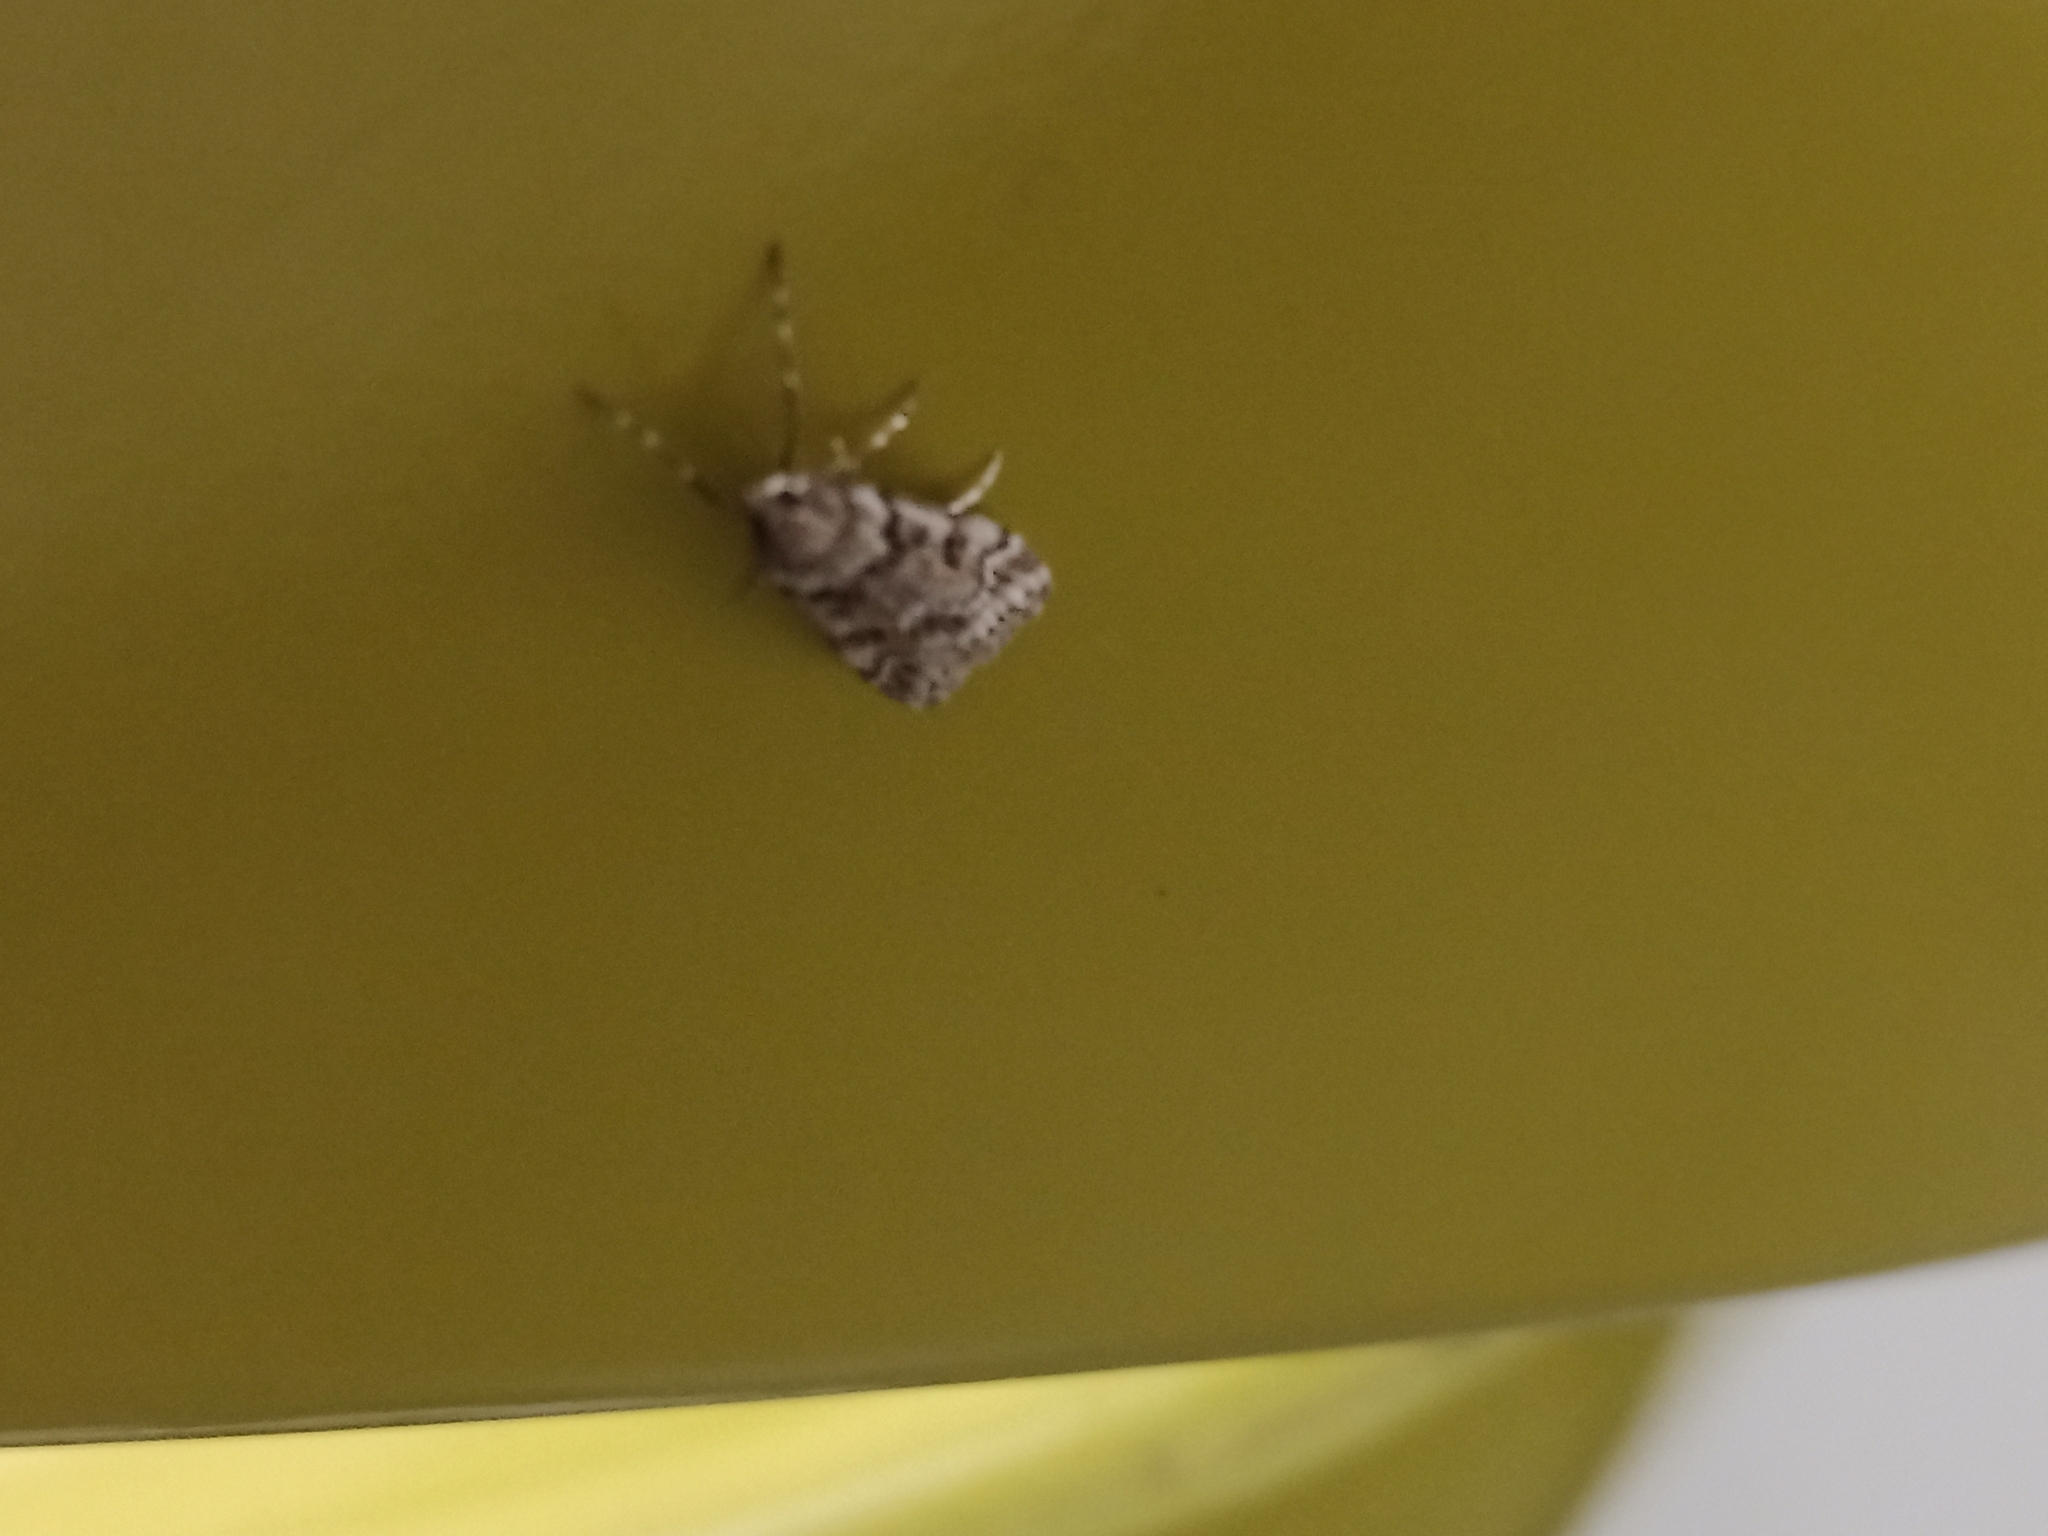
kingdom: Animalia
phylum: Arthropoda
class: Insecta
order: Lepidoptera
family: Crambidae
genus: Eudonia
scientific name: Eudonia angustea
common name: Narrow-winged grey
